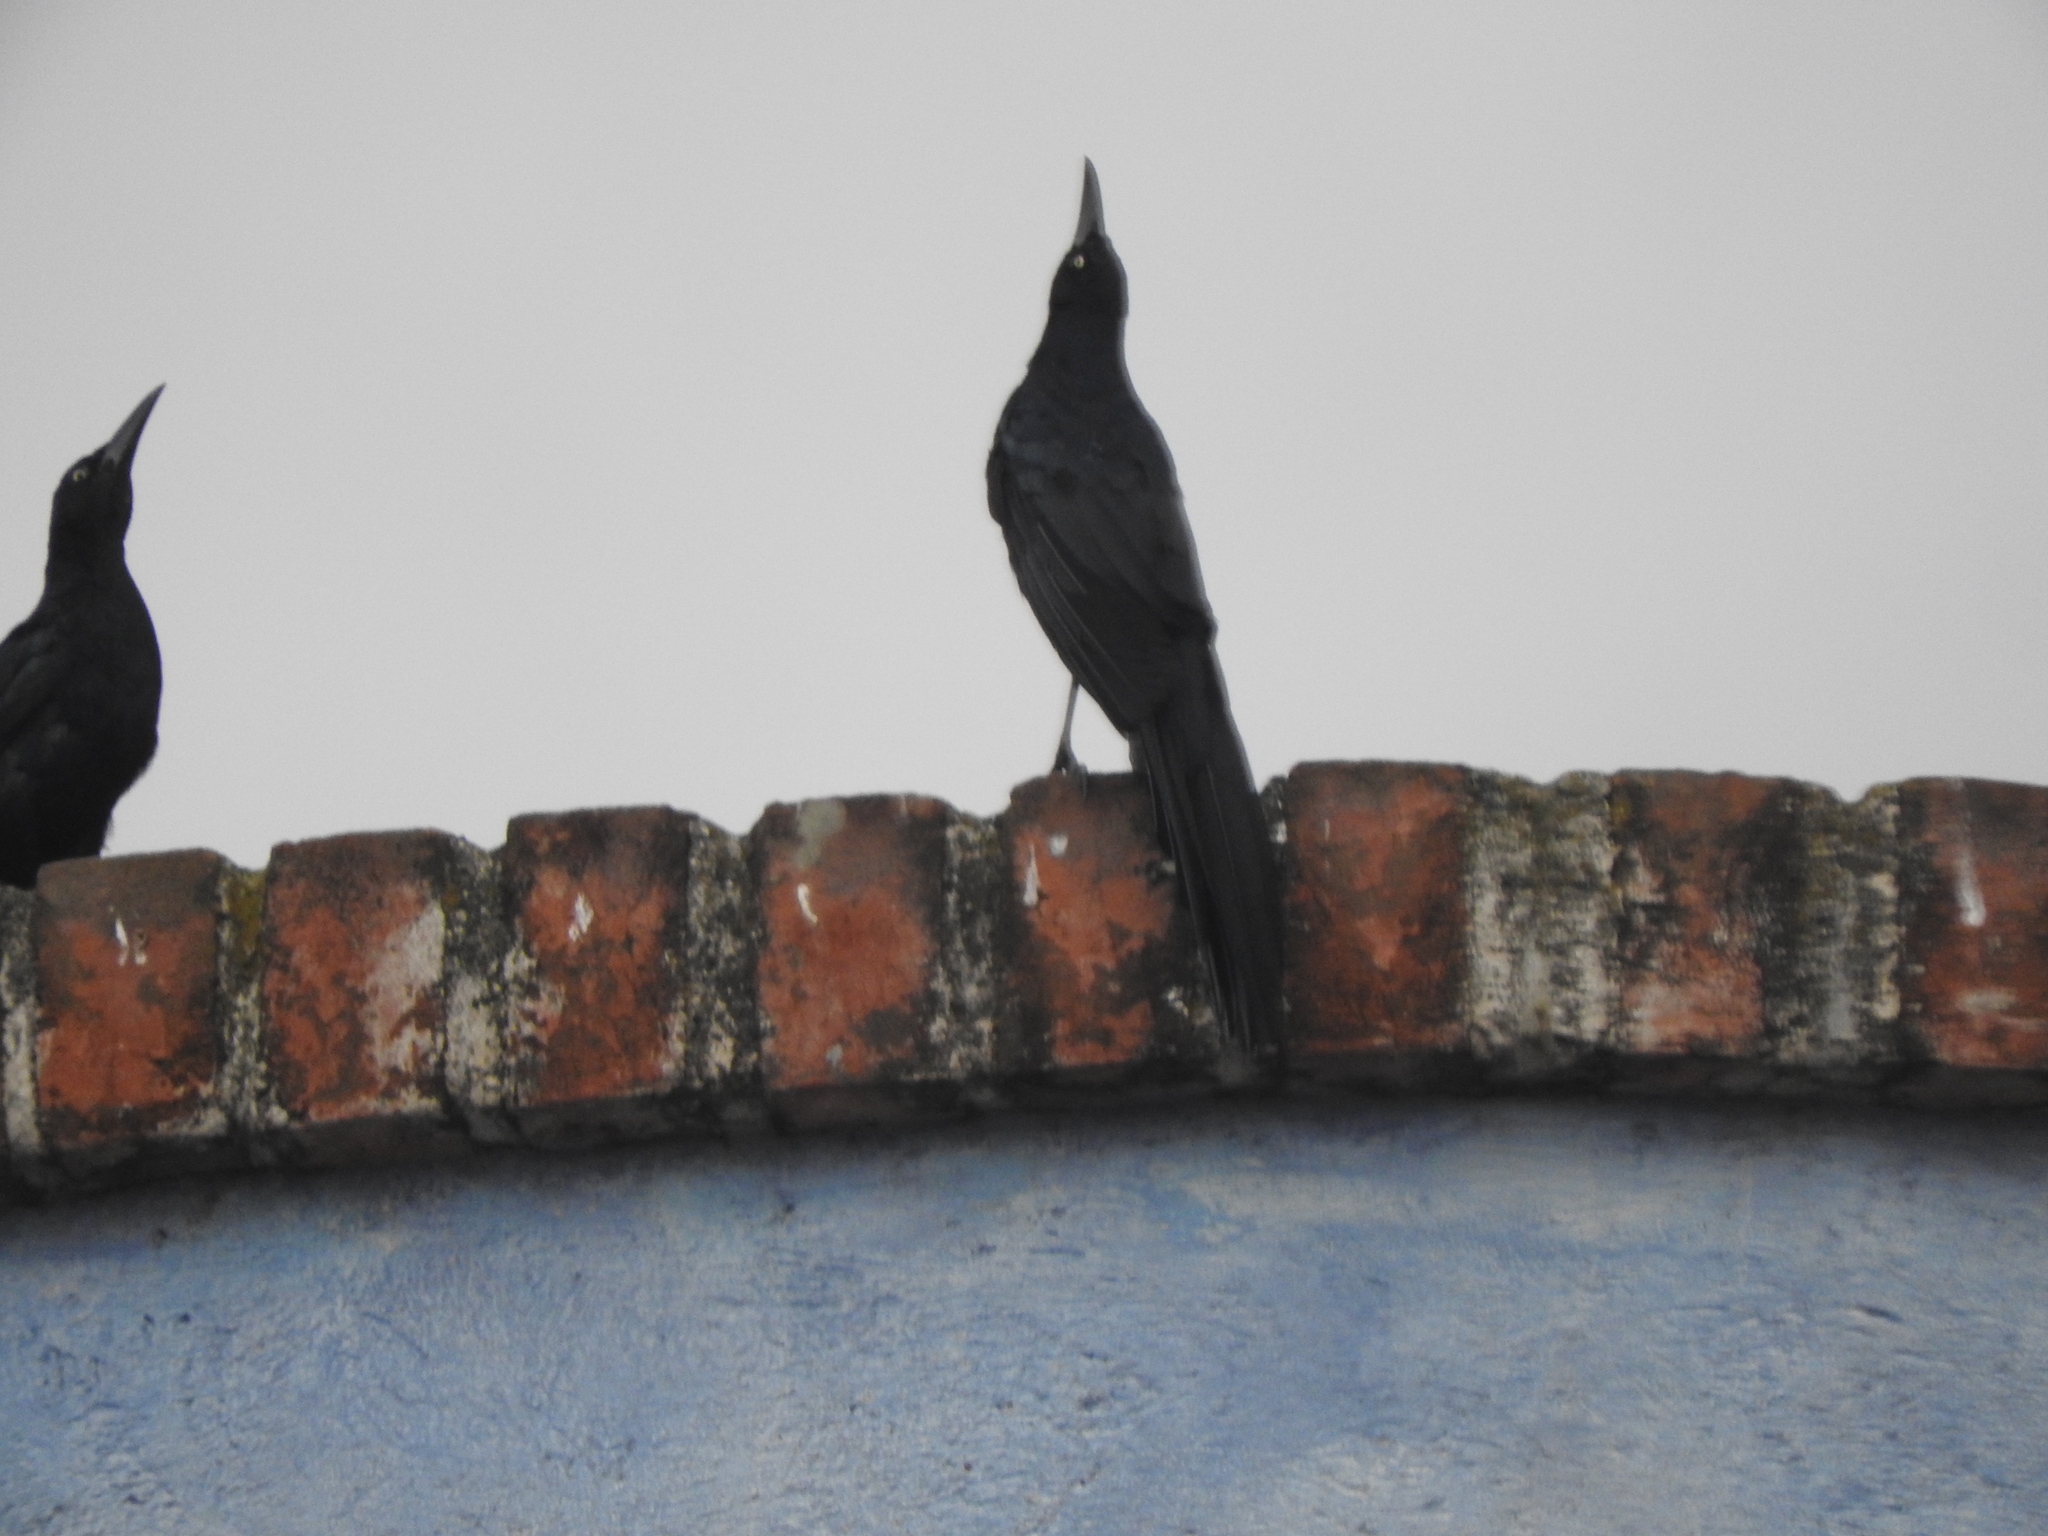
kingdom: Animalia
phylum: Chordata
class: Aves
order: Passeriformes
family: Icteridae
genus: Quiscalus
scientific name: Quiscalus mexicanus
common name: Great-tailed grackle
